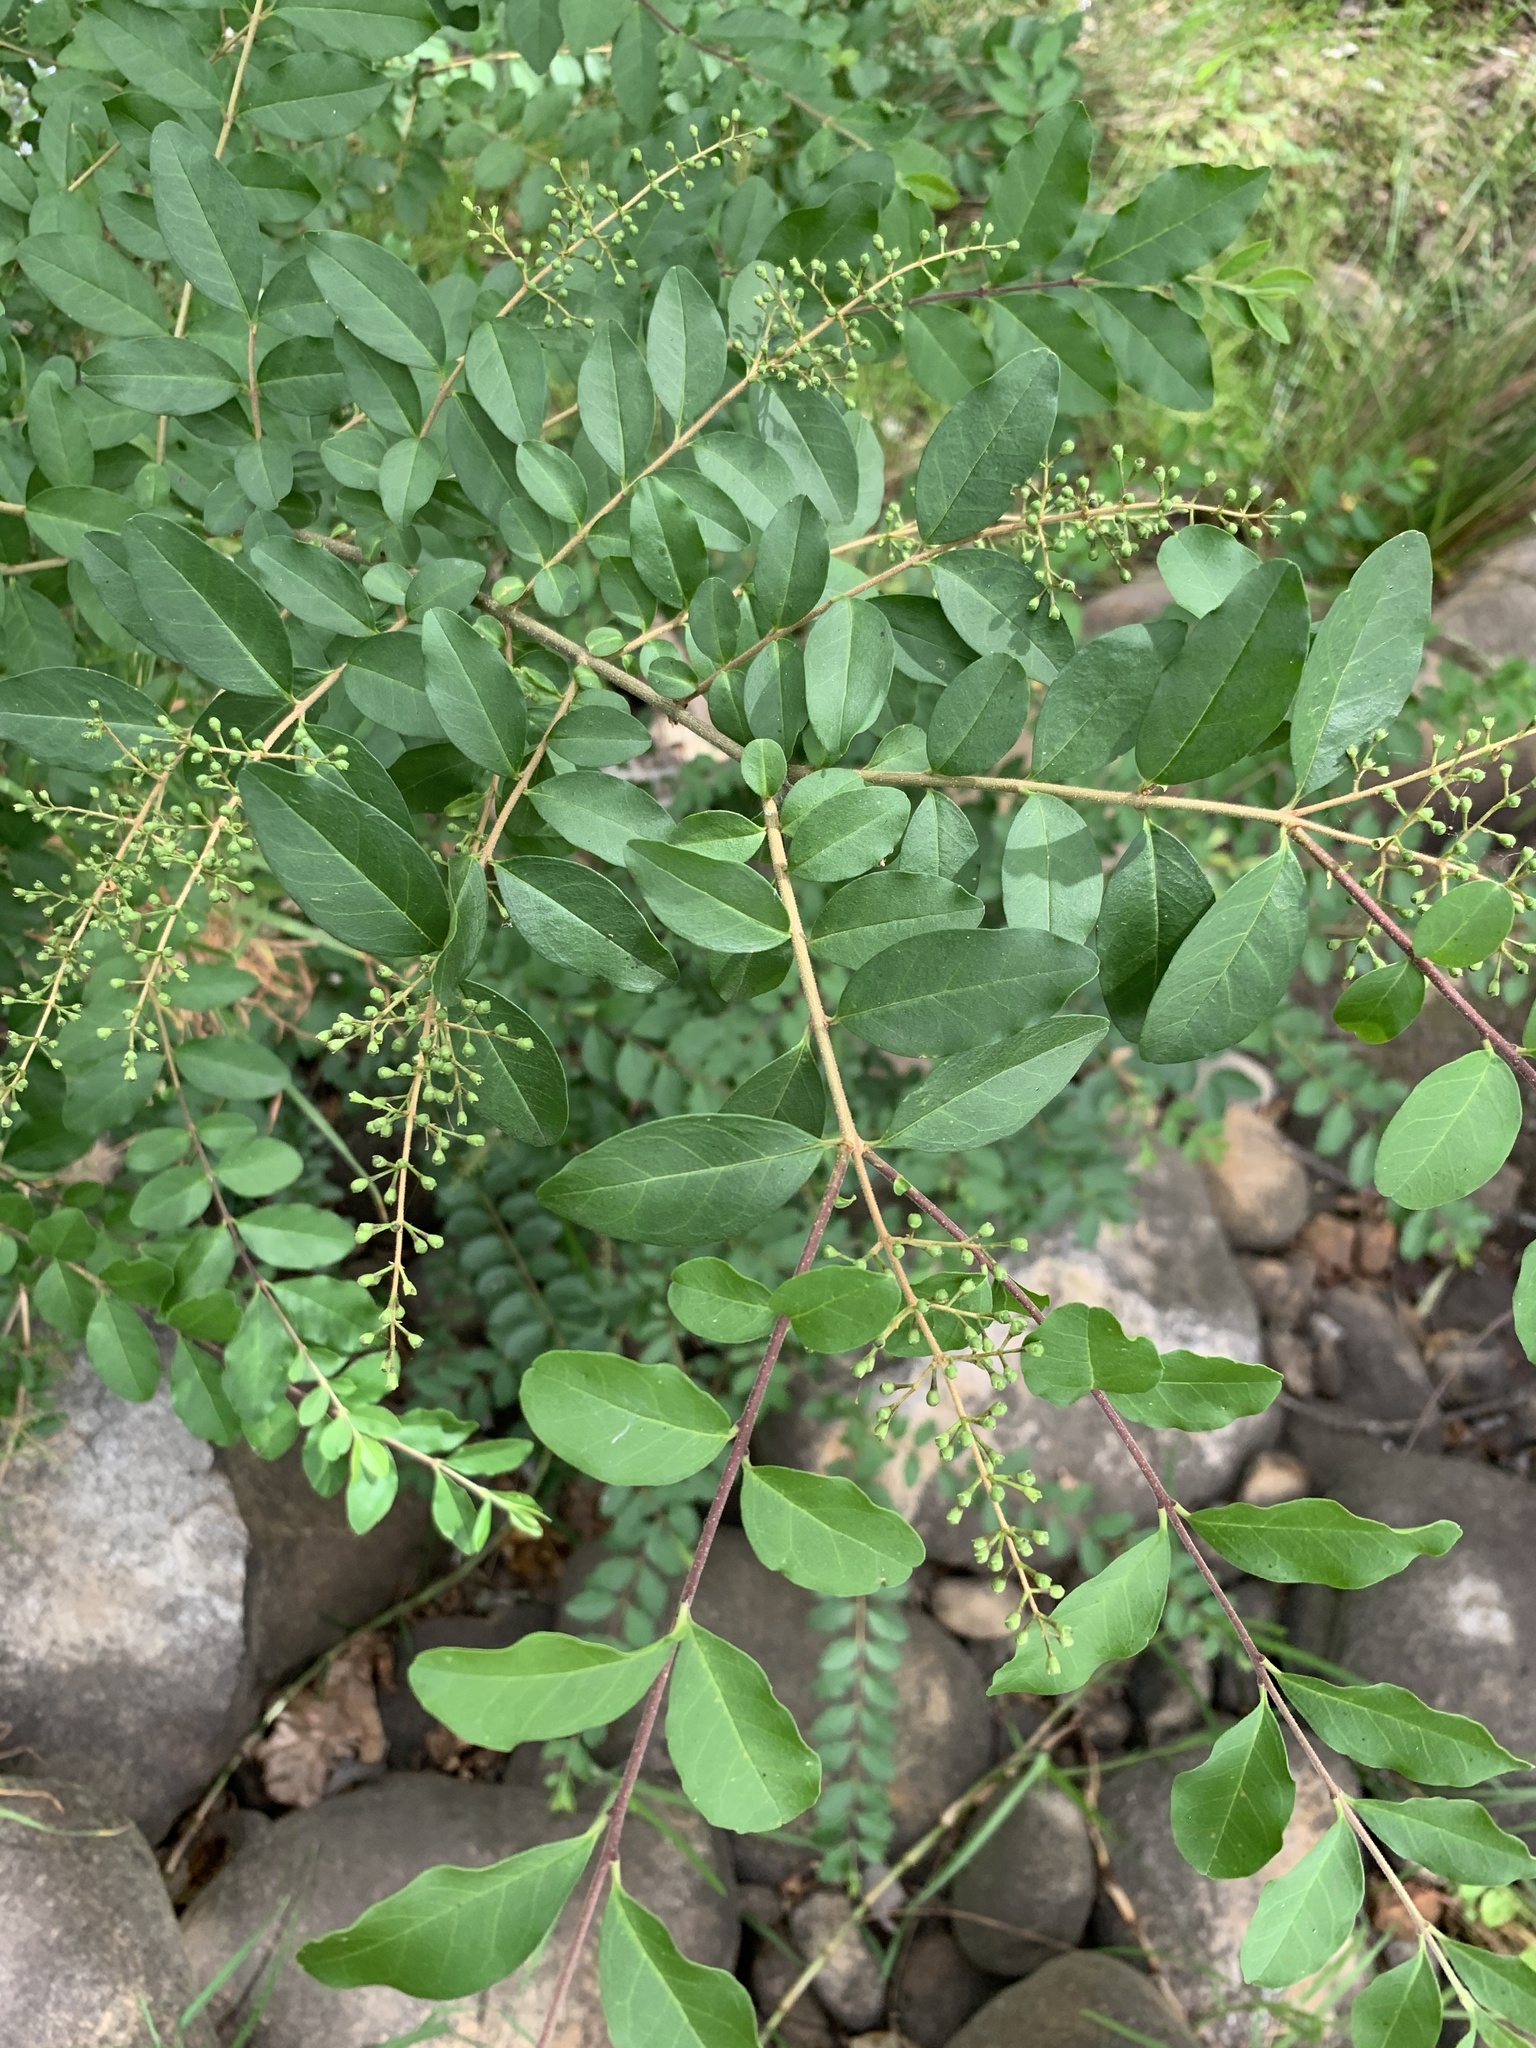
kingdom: Plantae
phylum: Tracheophyta
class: Magnoliopsida
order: Lamiales
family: Oleaceae
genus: Ligustrum
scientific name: Ligustrum sinense
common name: Chinese privet
